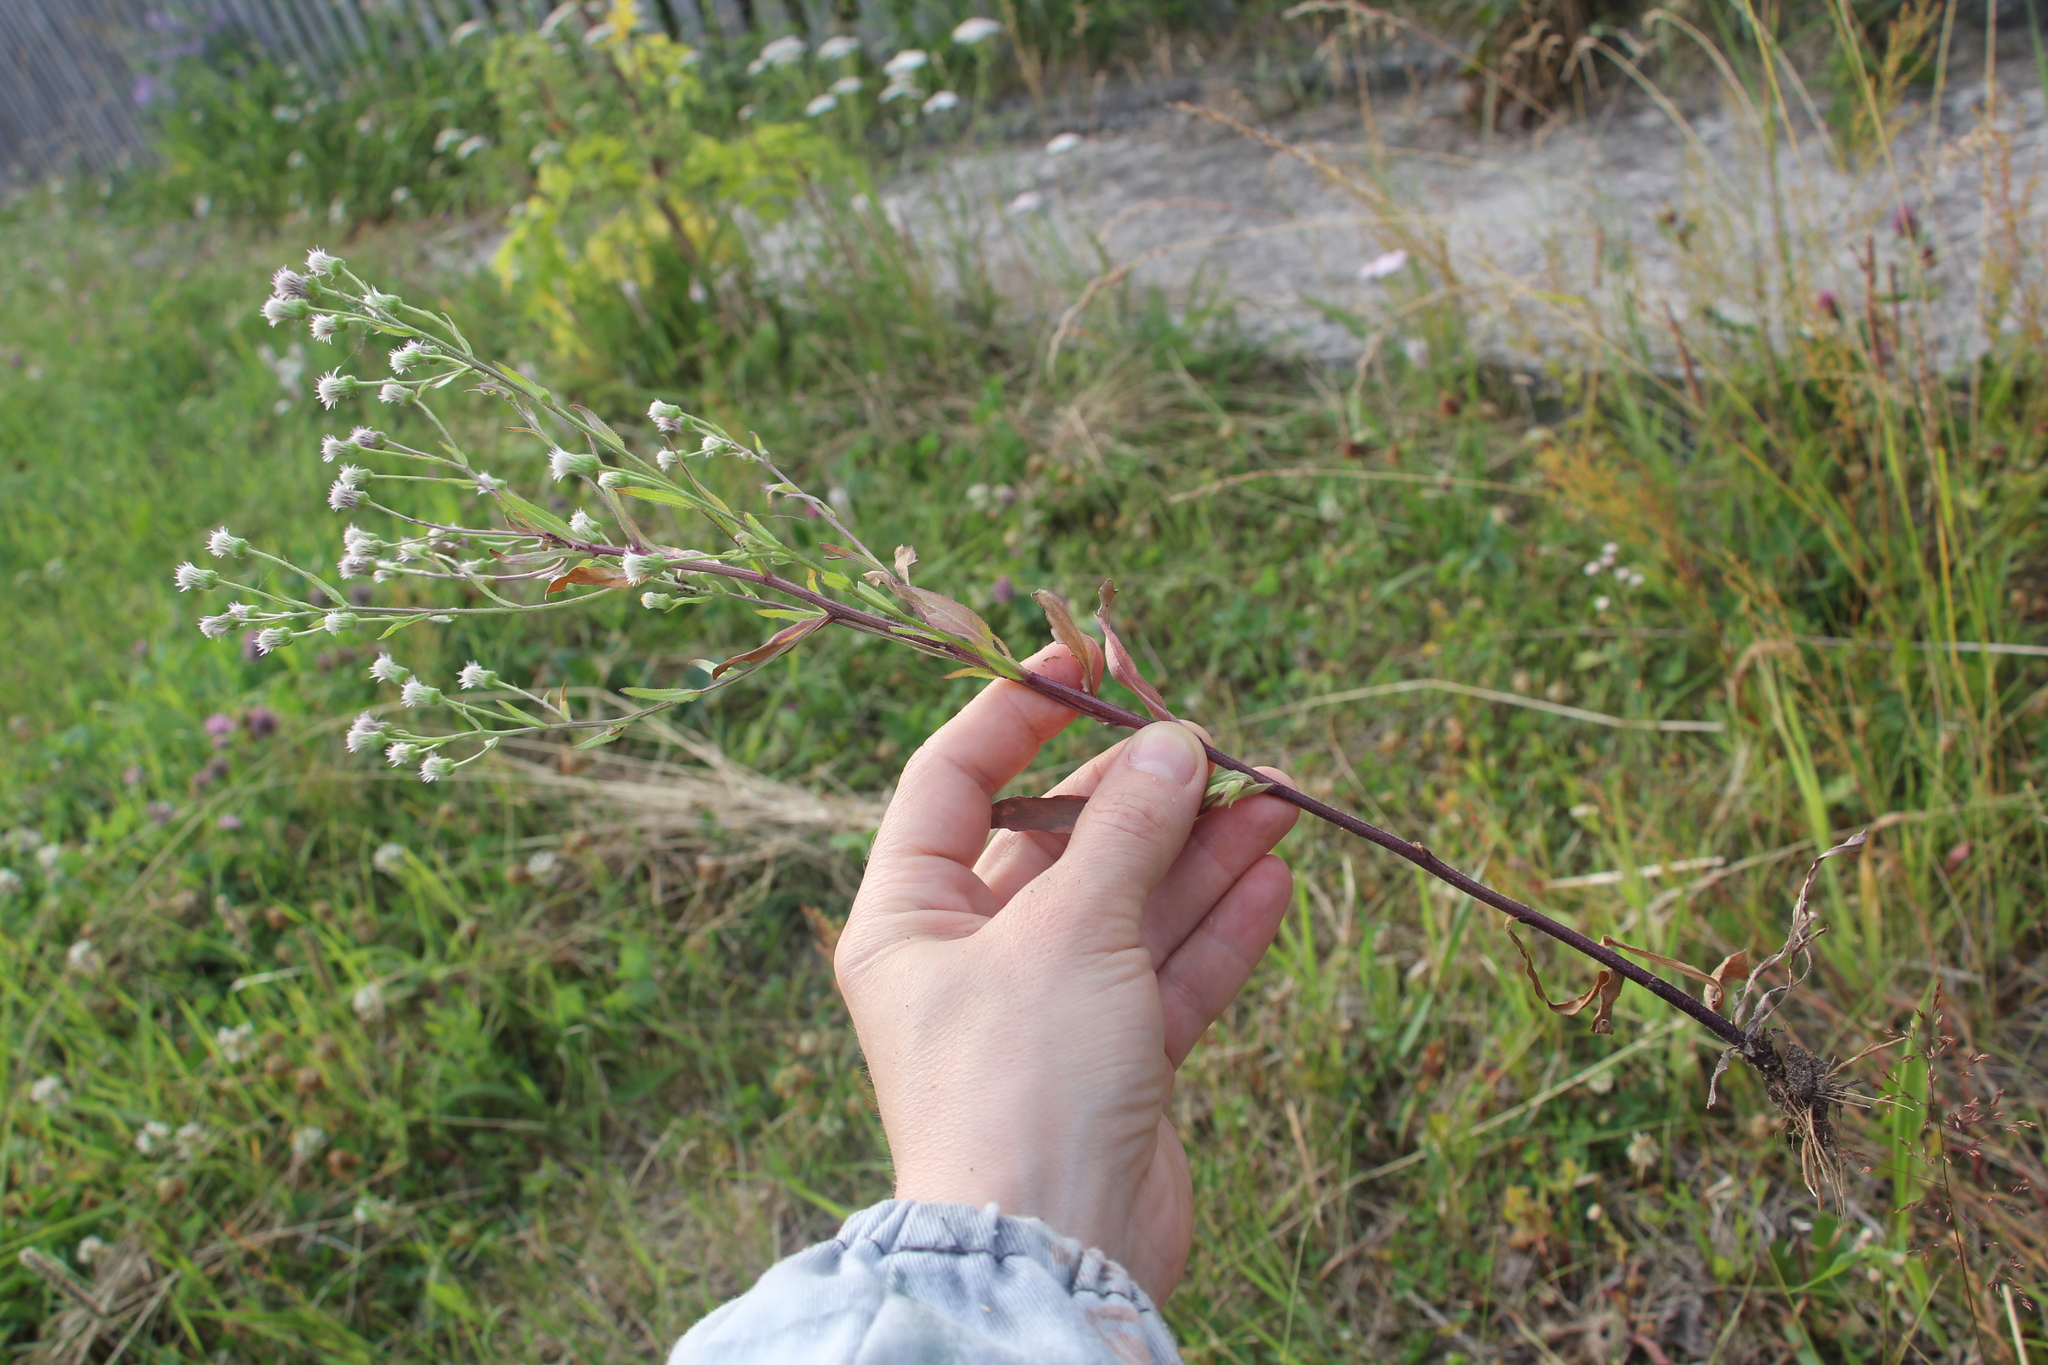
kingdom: Plantae
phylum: Tracheophyta
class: Magnoliopsida
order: Asterales
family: Asteraceae
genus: Erigeron
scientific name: Erigeron acris
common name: Blue fleabane
